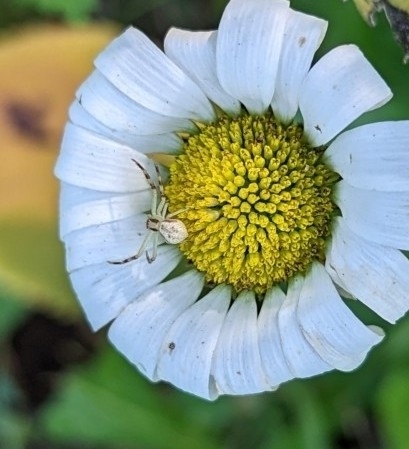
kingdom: Animalia
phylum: Arthropoda
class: Arachnida
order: Araneae
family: Thomisidae
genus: Mecaphesa
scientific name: Mecaphesa asperata
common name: Crab spiders
